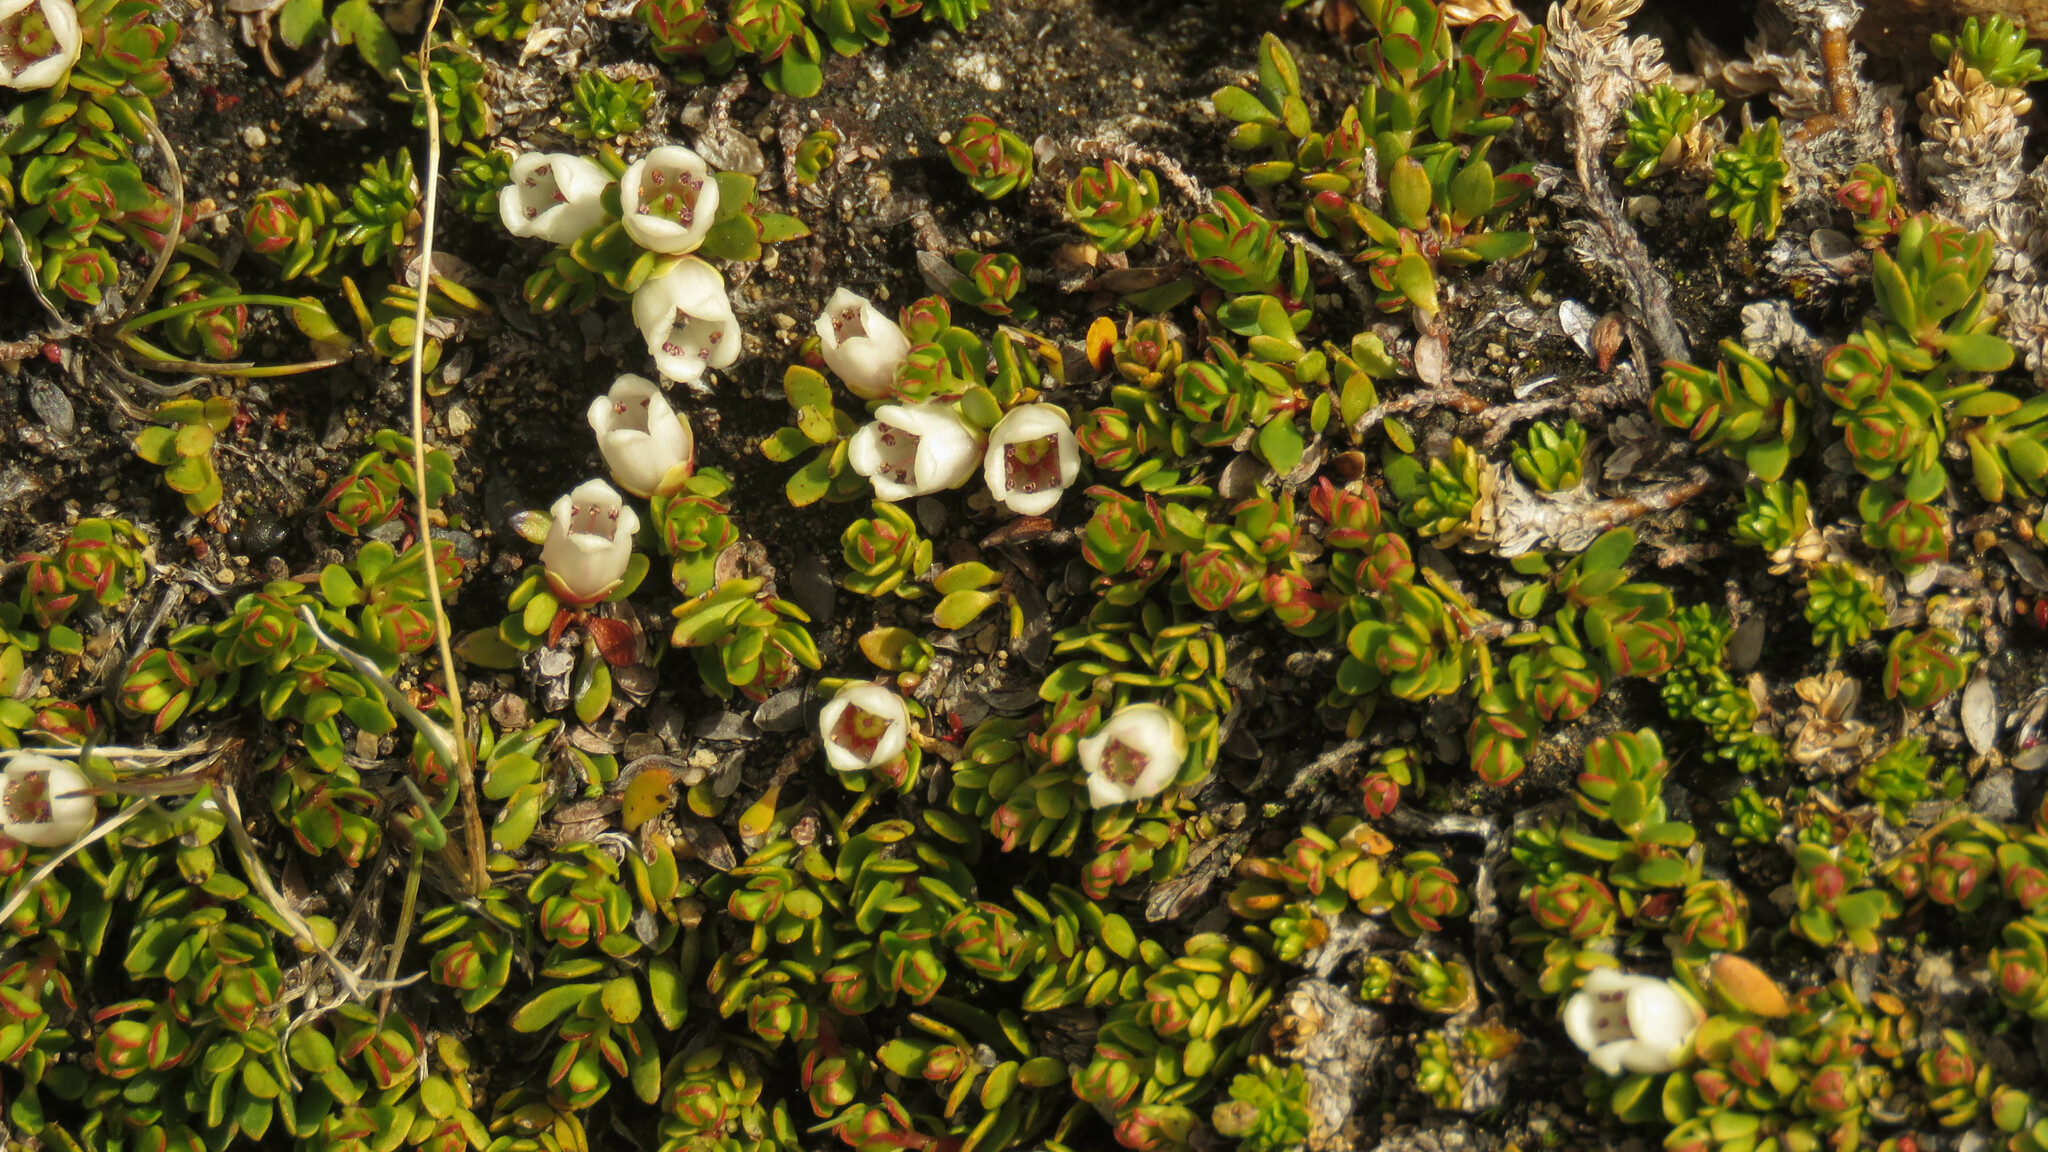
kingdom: Plantae
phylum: Tracheophyta
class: Magnoliopsida
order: Ericales
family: Ericaceae
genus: Gaultheria
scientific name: Gaultheria caespitosa
